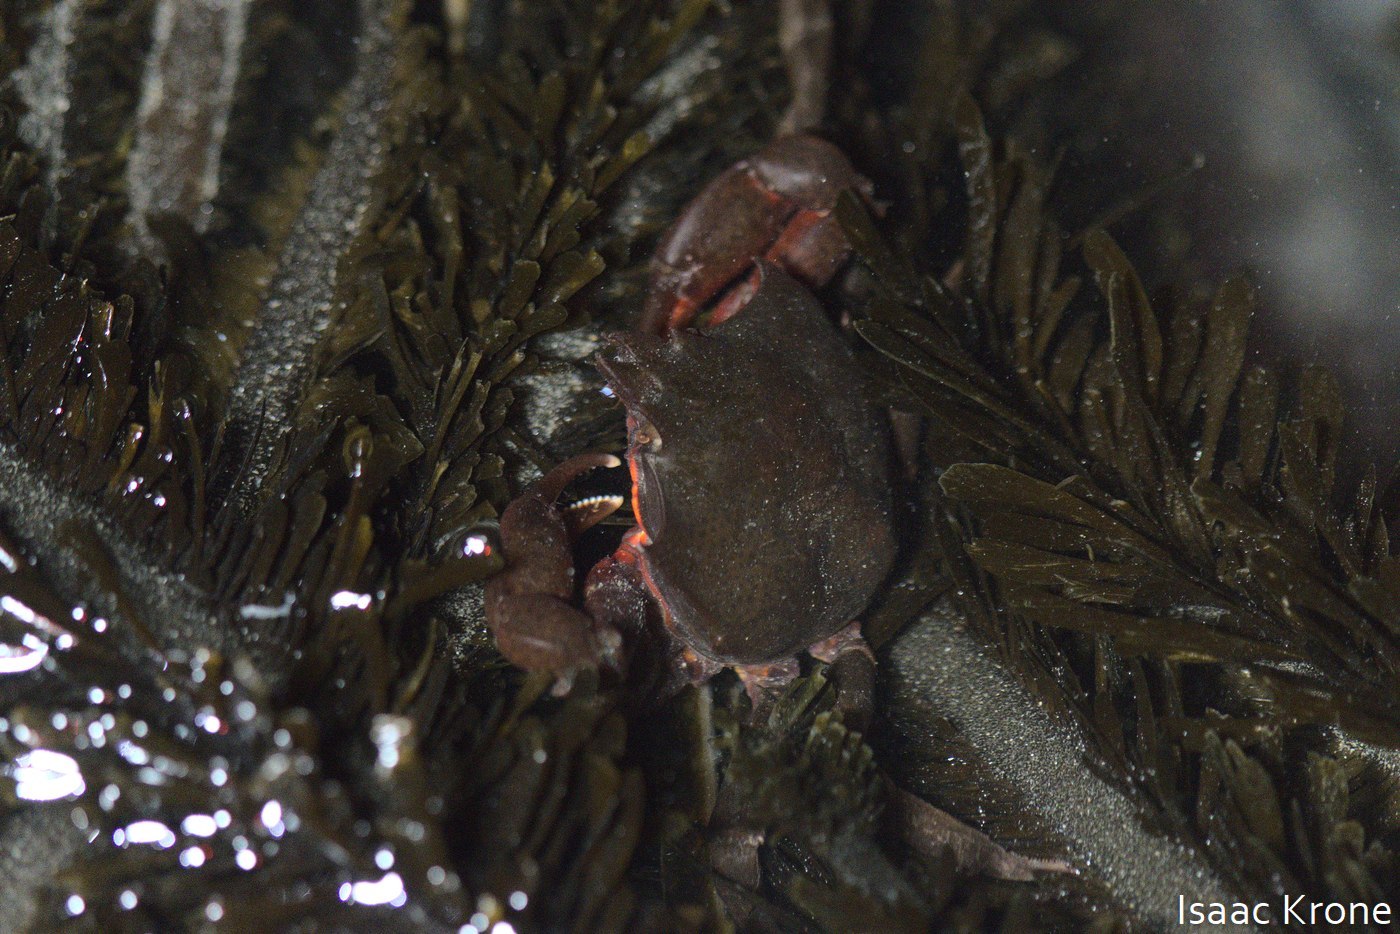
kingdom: Animalia
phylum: Arthropoda
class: Malacostraca
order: Decapoda
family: Epialtidae
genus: Pugettia
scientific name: Pugettia producta
